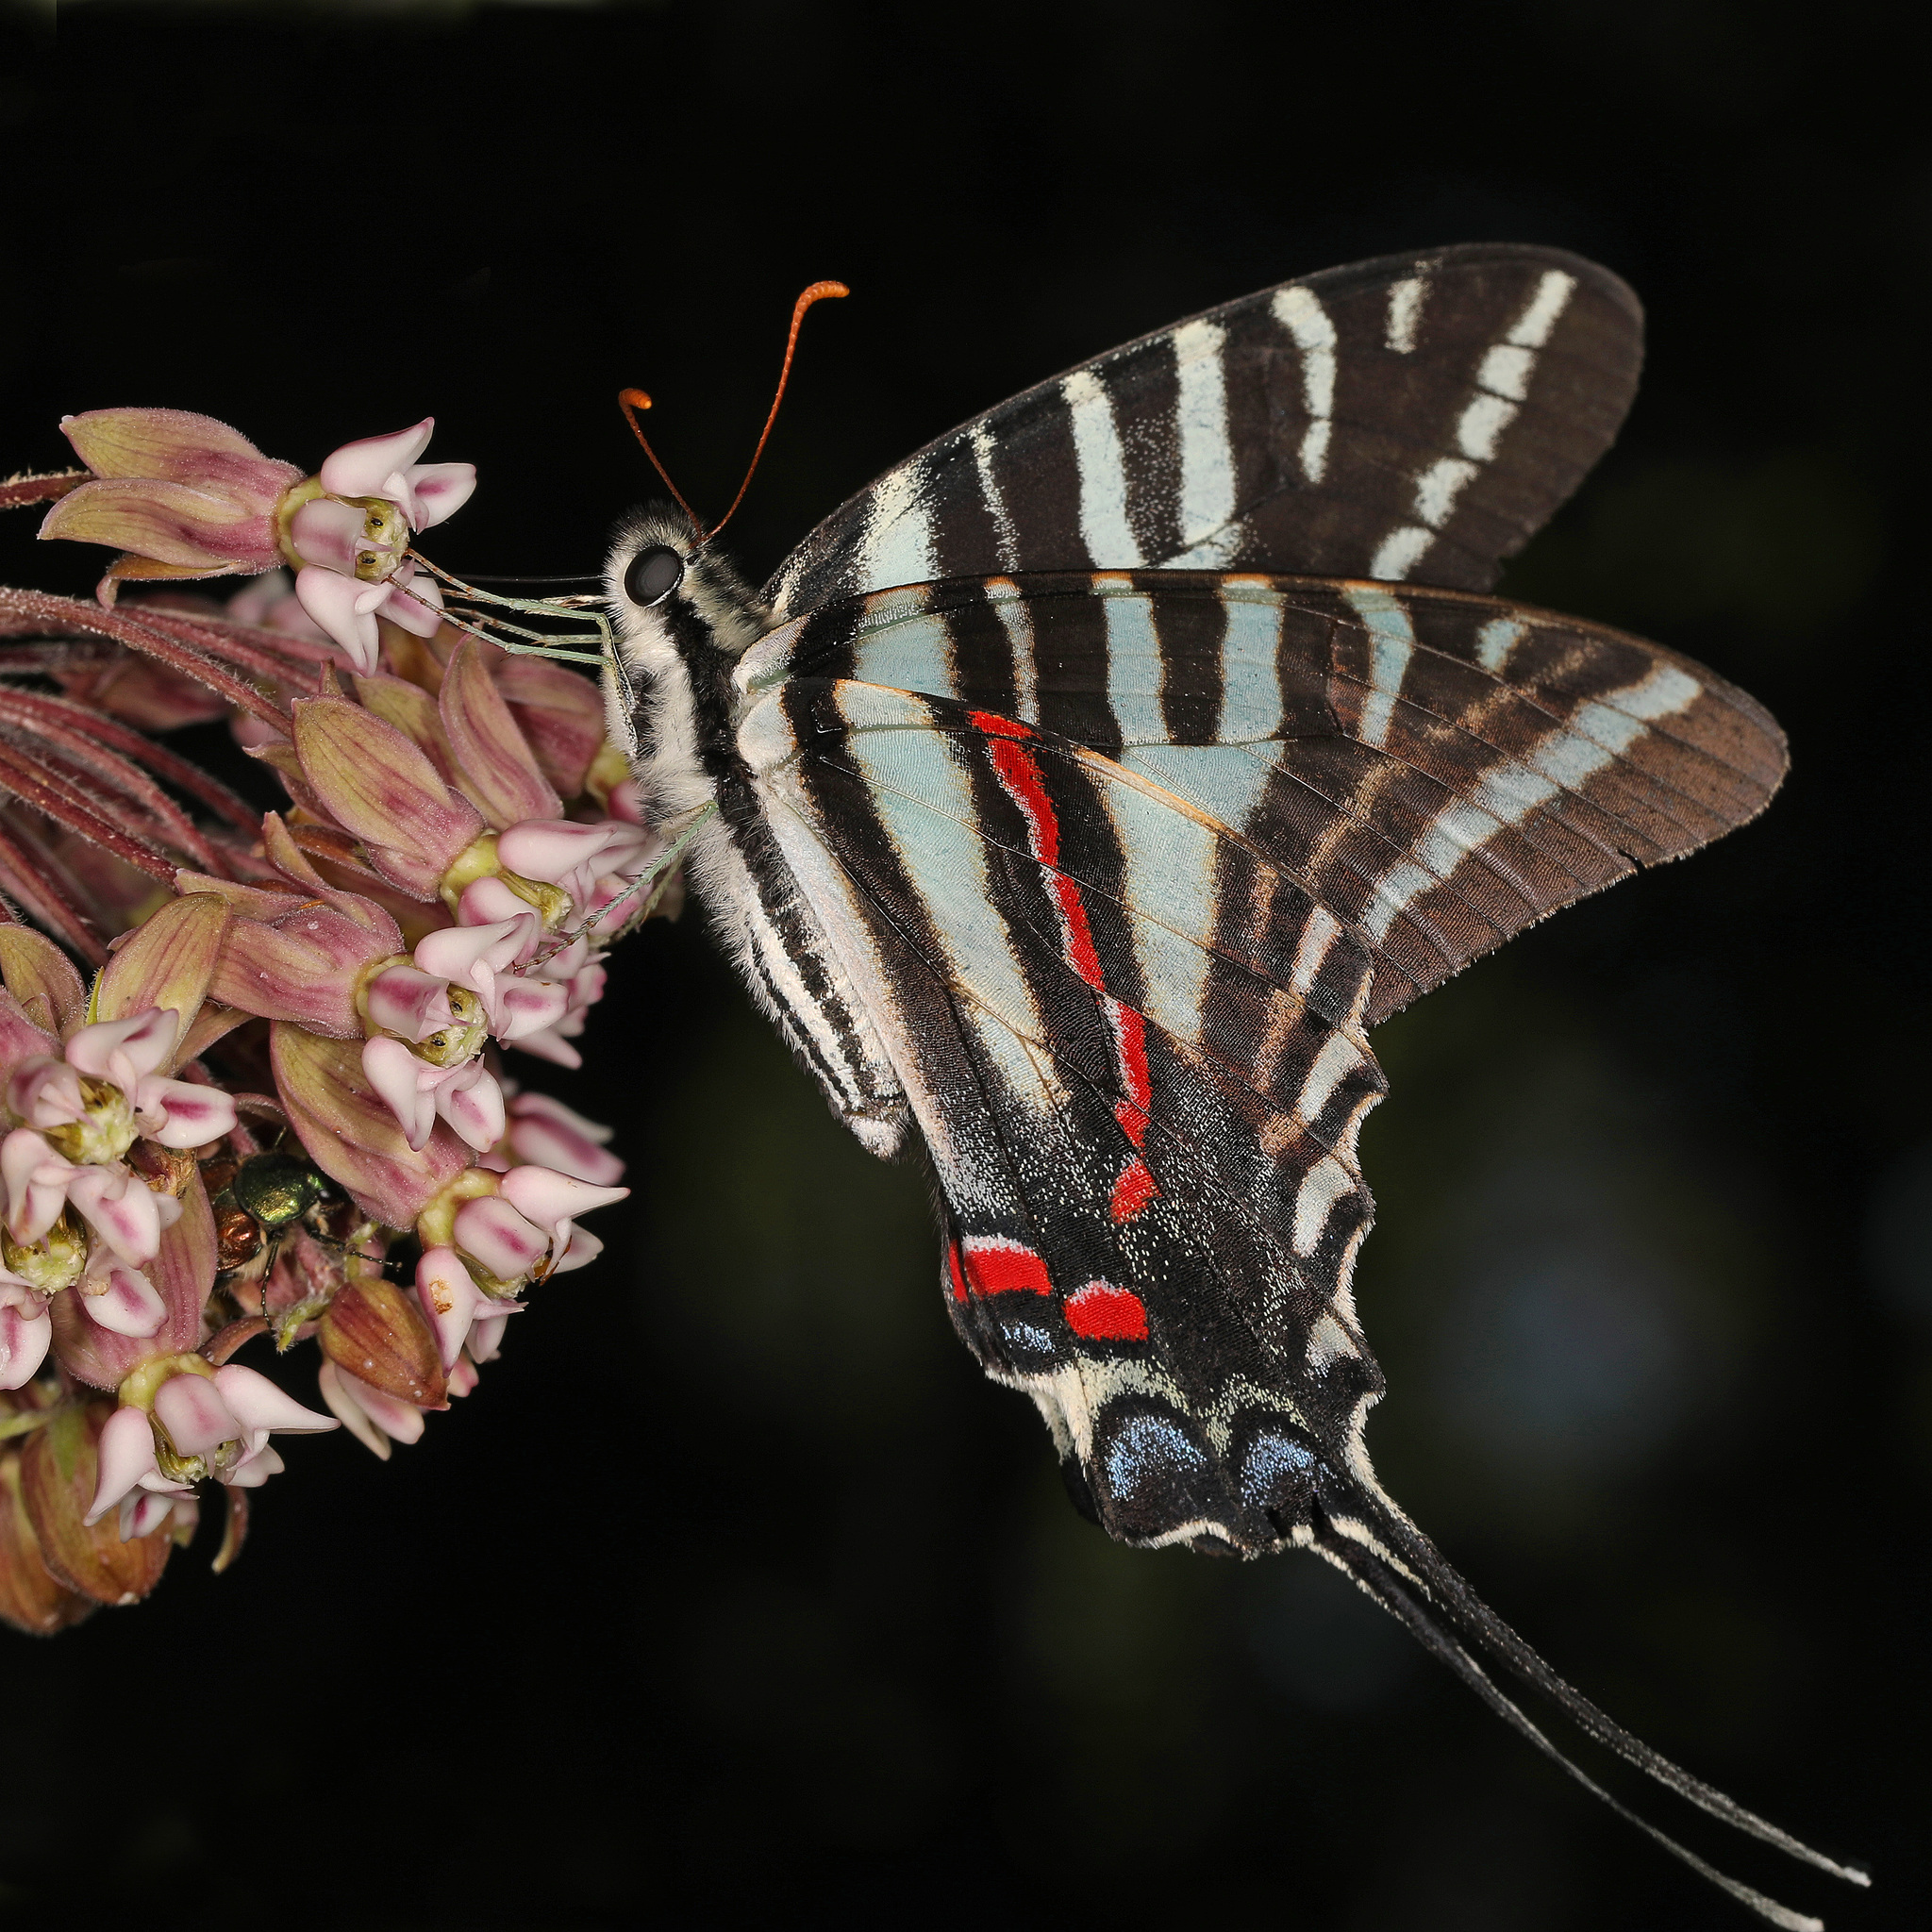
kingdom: Animalia
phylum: Arthropoda
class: Insecta
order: Lepidoptera
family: Papilionidae
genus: Protographium
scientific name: Protographium marcellus
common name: Zebra swallowtail
